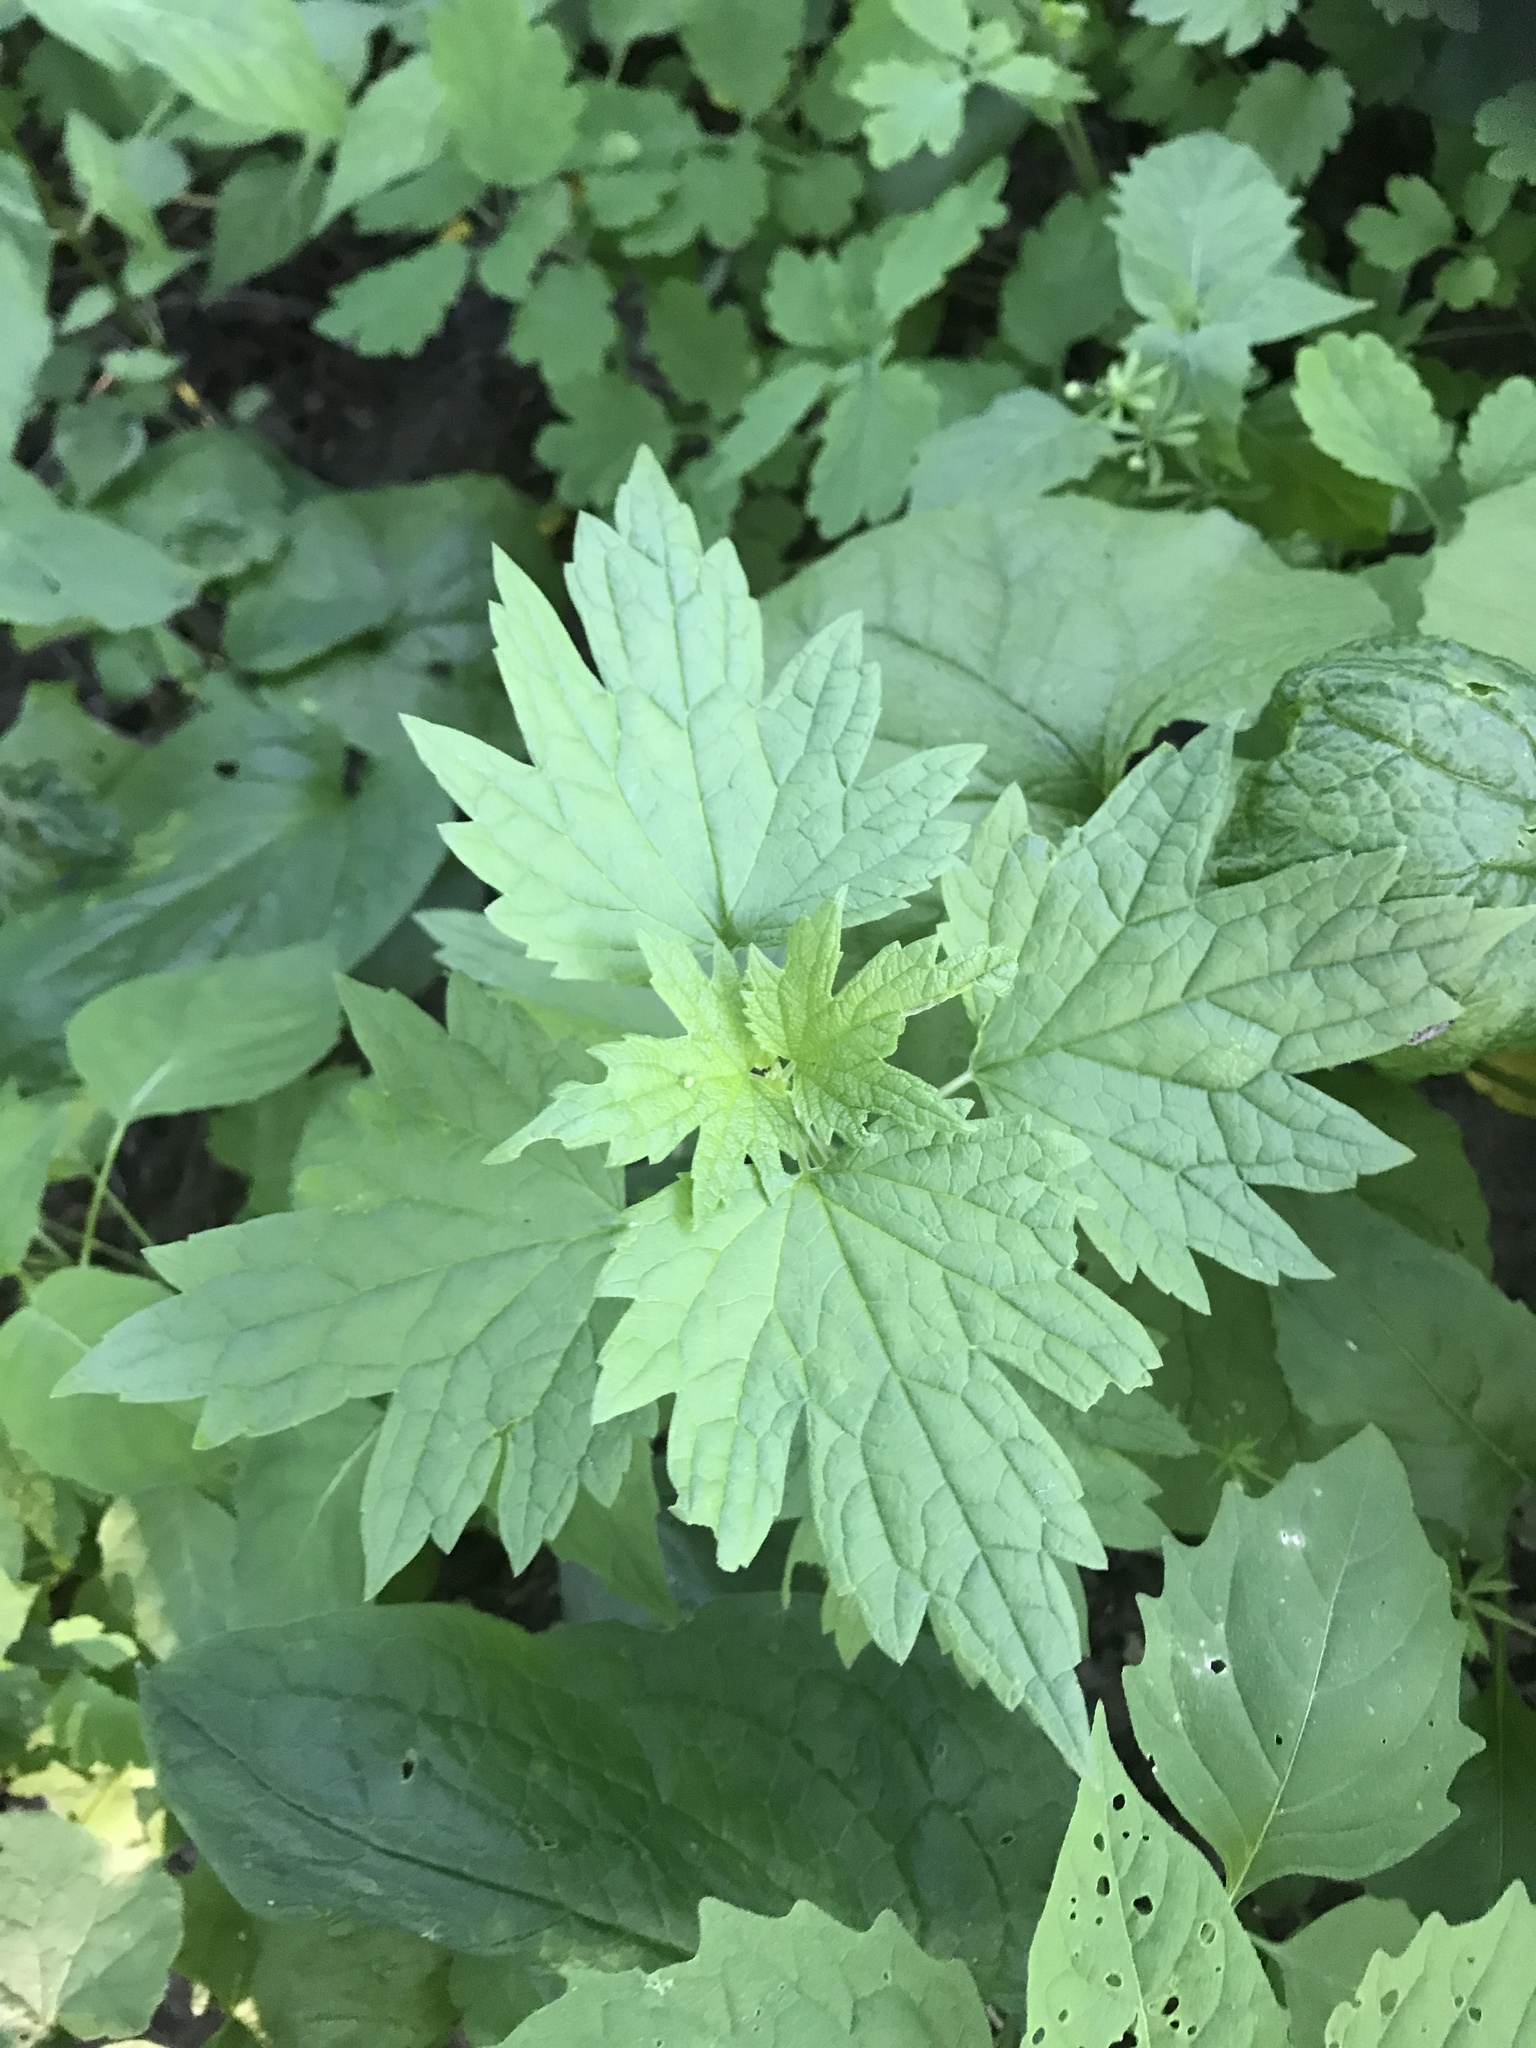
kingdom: Plantae
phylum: Tracheophyta
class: Magnoliopsida
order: Lamiales
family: Lamiaceae
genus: Leonurus
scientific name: Leonurus cardiaca
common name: Motherwort
